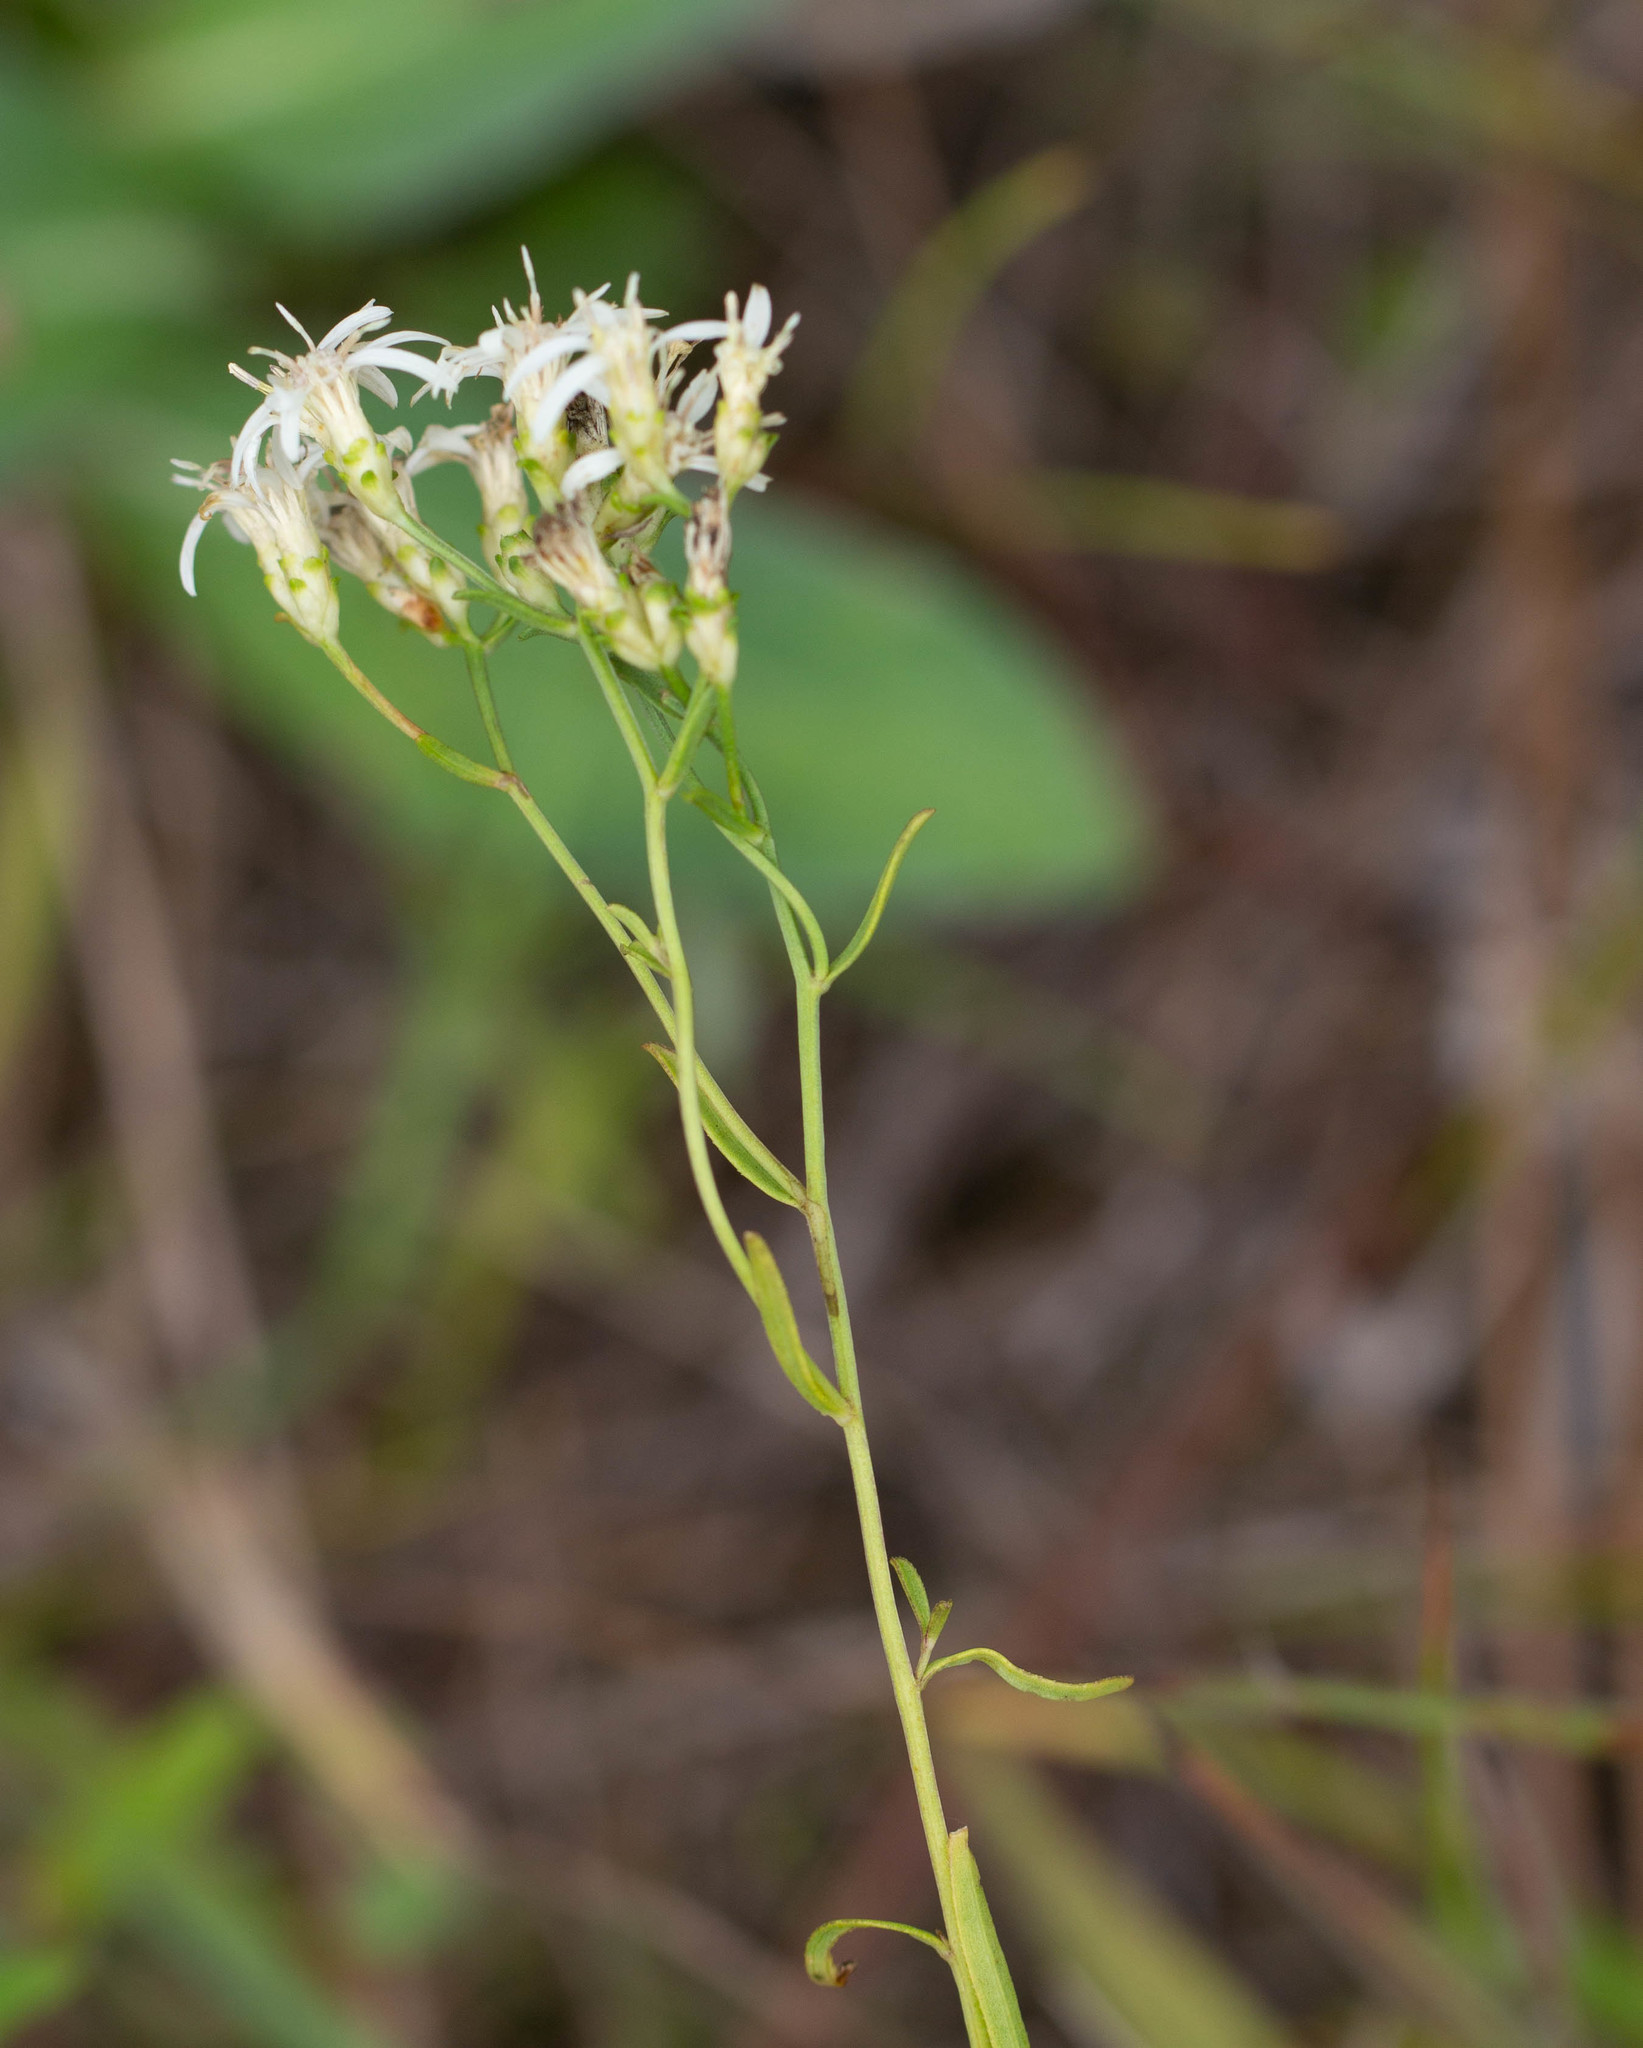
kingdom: Plantae
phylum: Tracheophyta
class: Magnoliopsida
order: Asterales
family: Asteraceae
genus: Sericocarpus
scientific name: Sericocarpus linifolius
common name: Narrow-leaf aster
